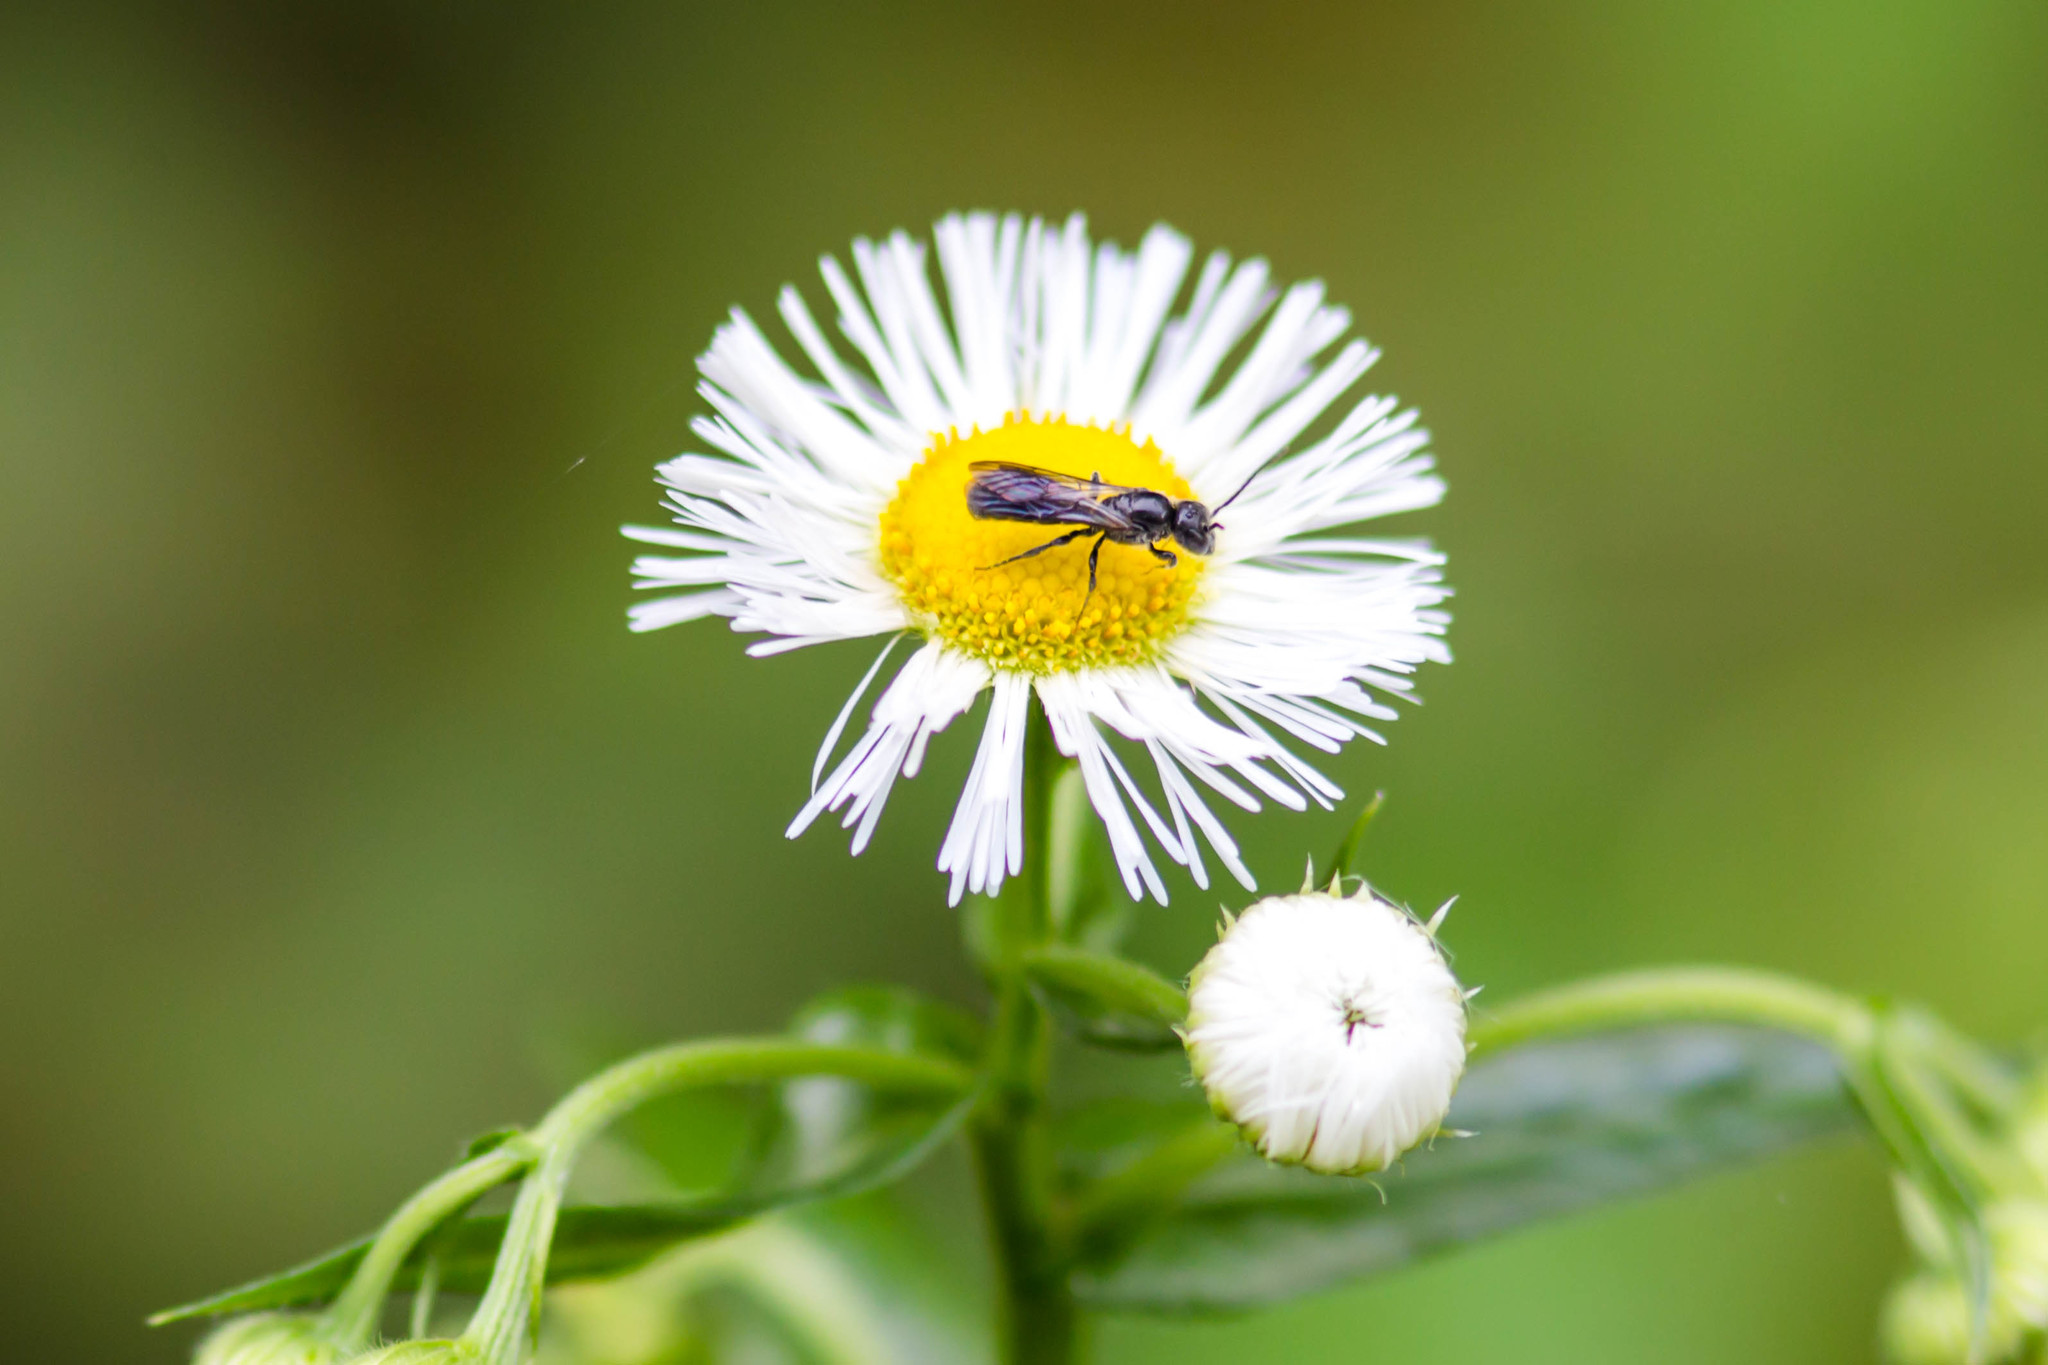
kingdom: Animalia
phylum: Arthropoda
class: Insecta
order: Hymenoptera
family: Megachilidae
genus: Chelostoma
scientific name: Chelostoma philadelphi
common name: Mock-orange scissor bee
